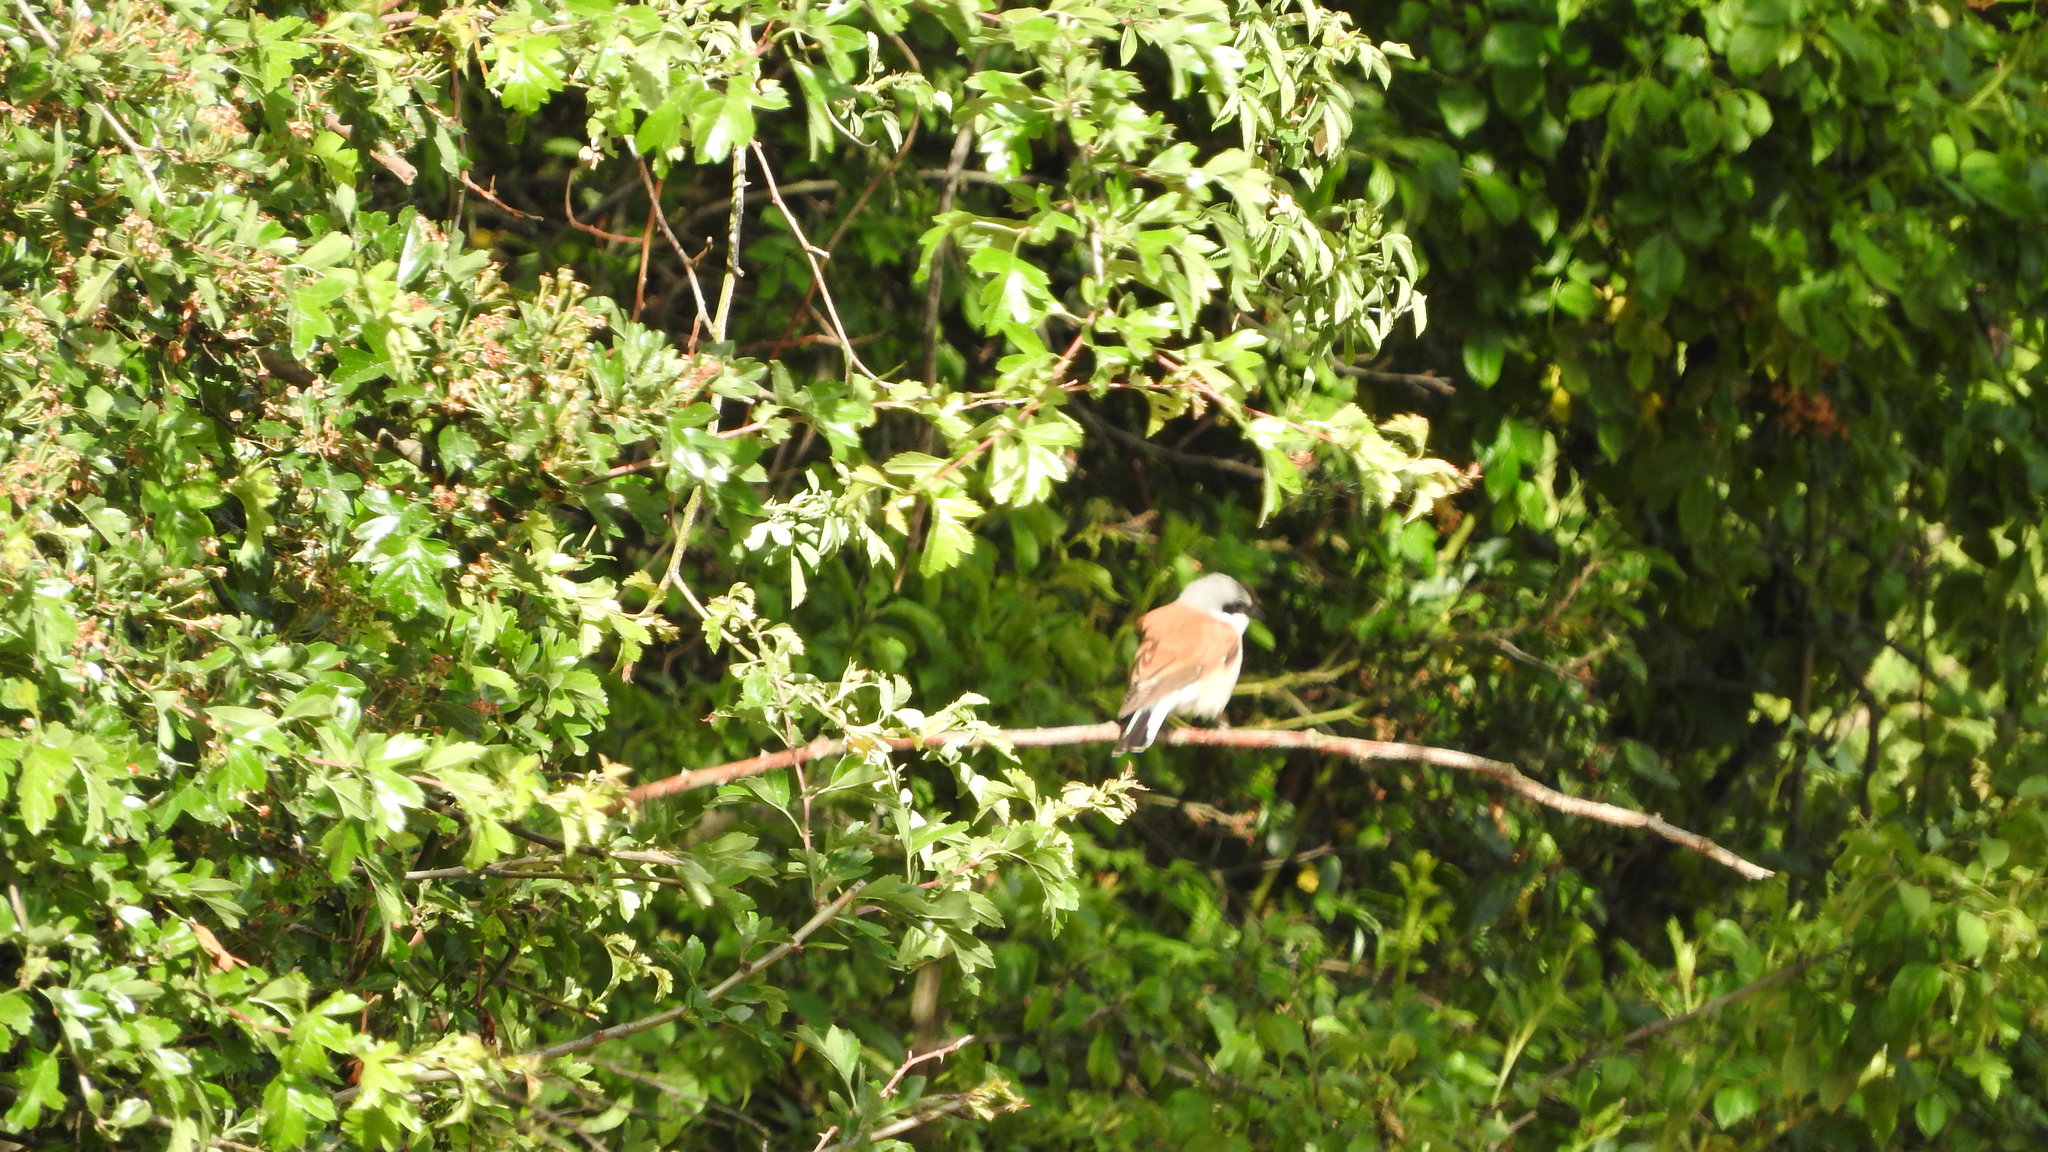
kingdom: Animalia
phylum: Chordata
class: Aves
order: Passeriformes
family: Laniidae
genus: Lanius
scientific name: Lanius collurio
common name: Red-backed shrike
